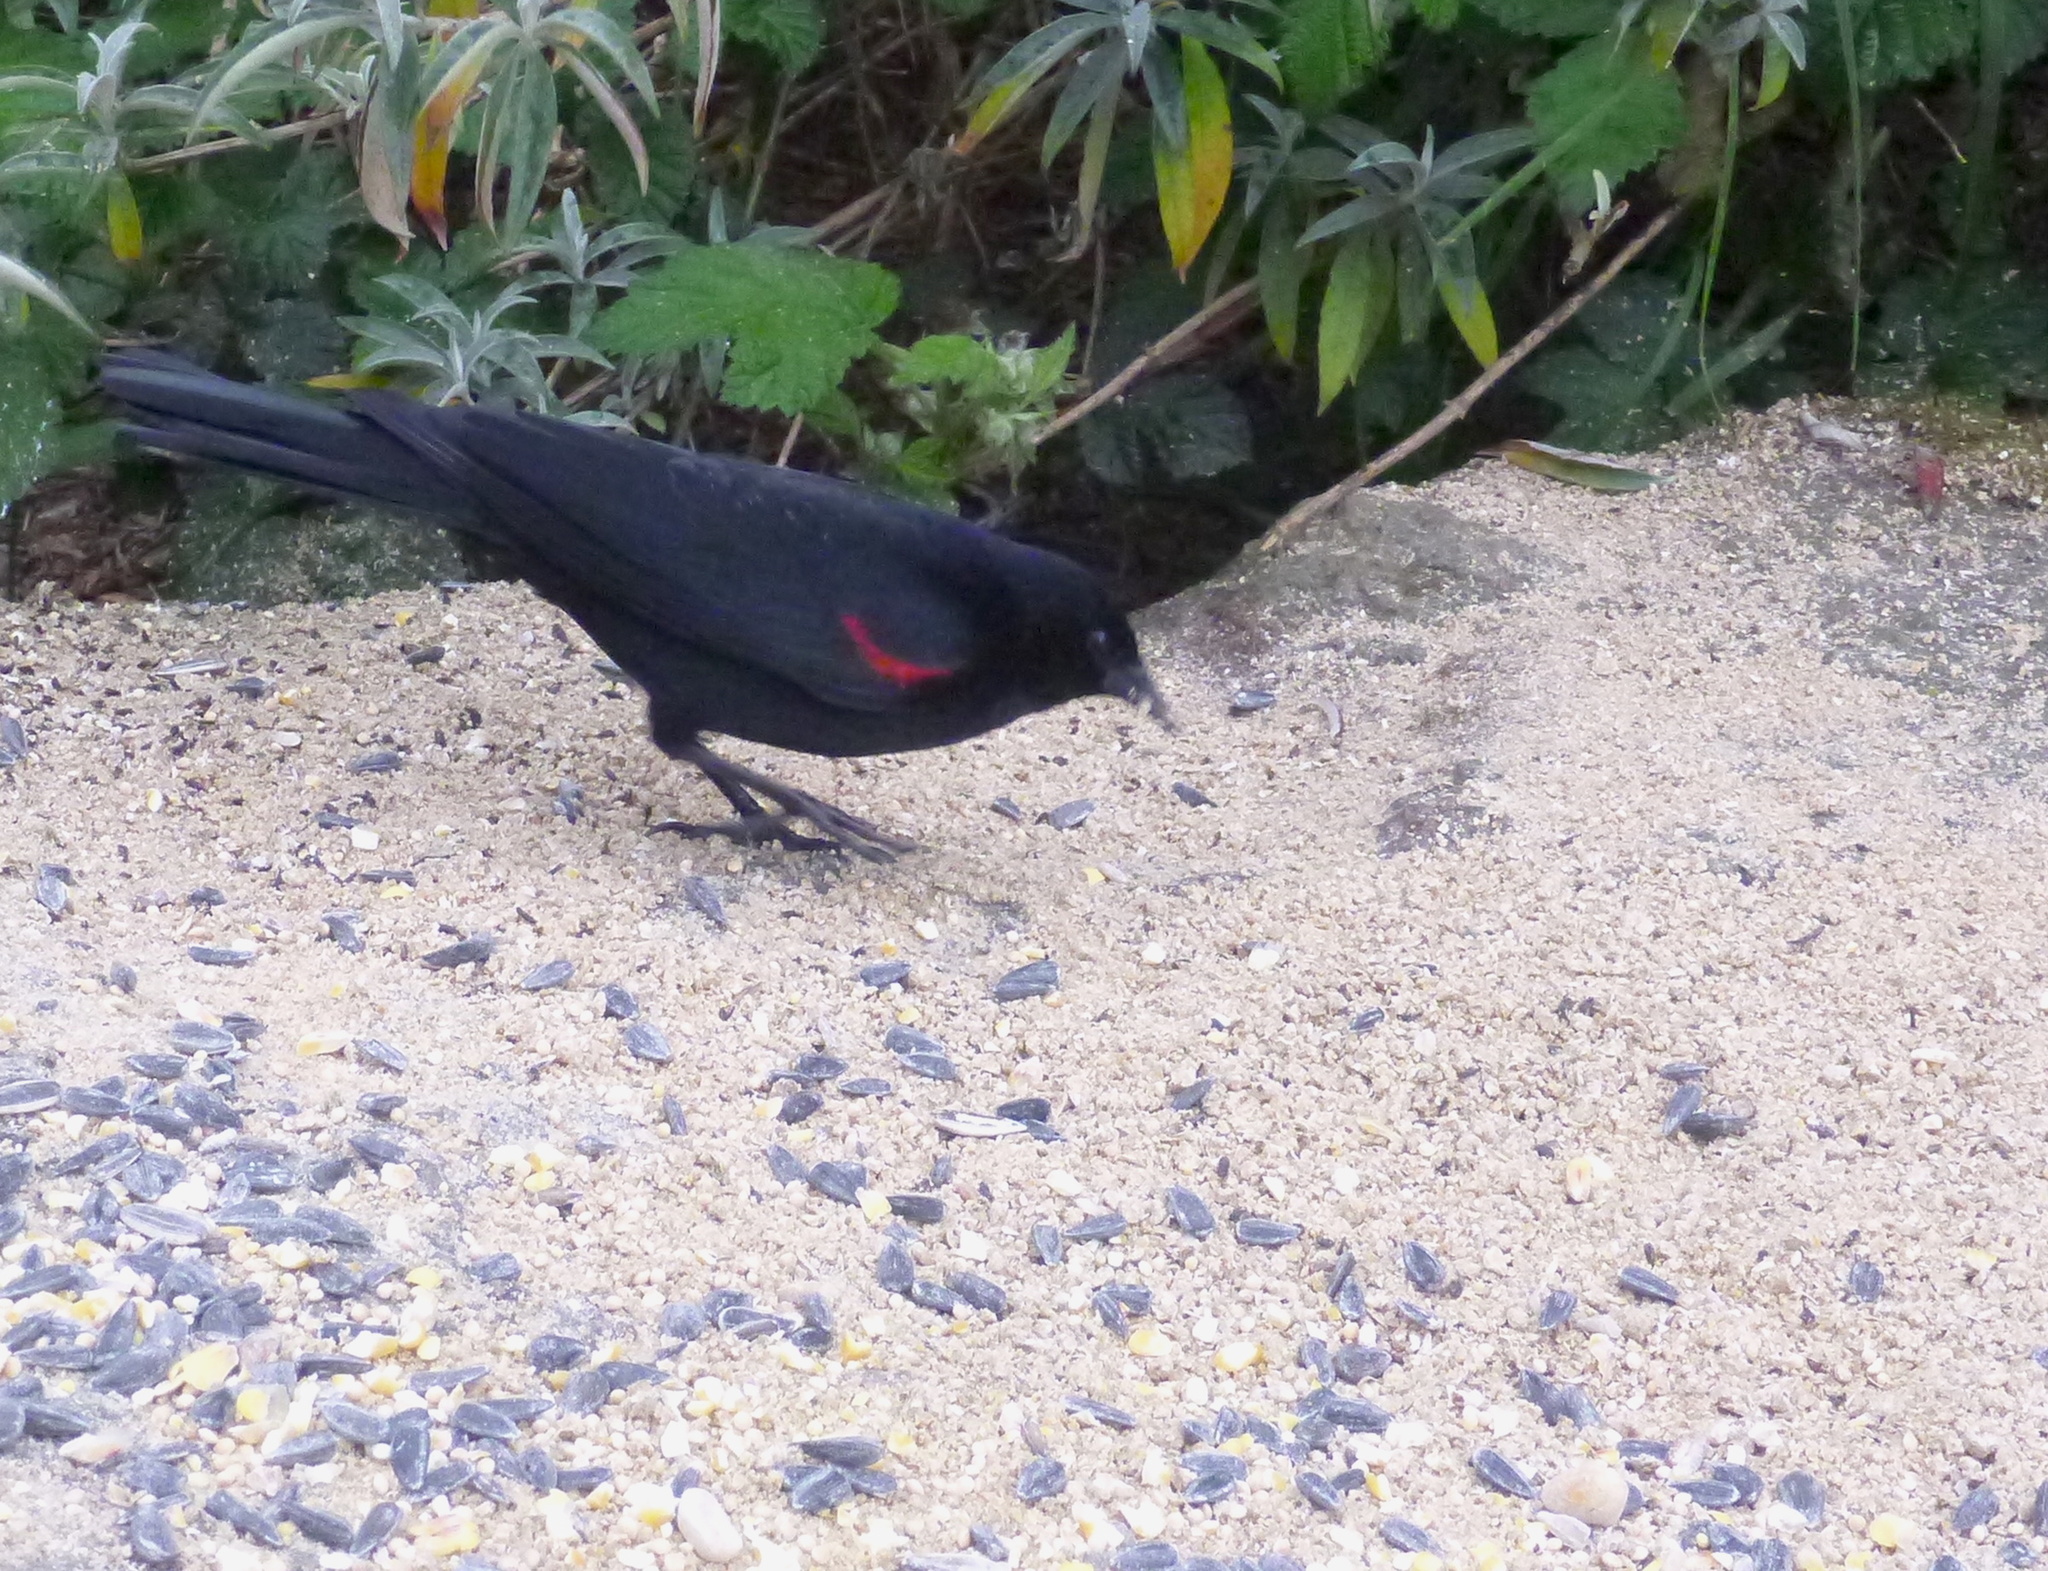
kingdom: Animalia
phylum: Chordata
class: Aves
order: Passeriformes
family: Icteridae
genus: Agelaius
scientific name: Agelaius phoeniceus
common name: Red-winged blackbird
